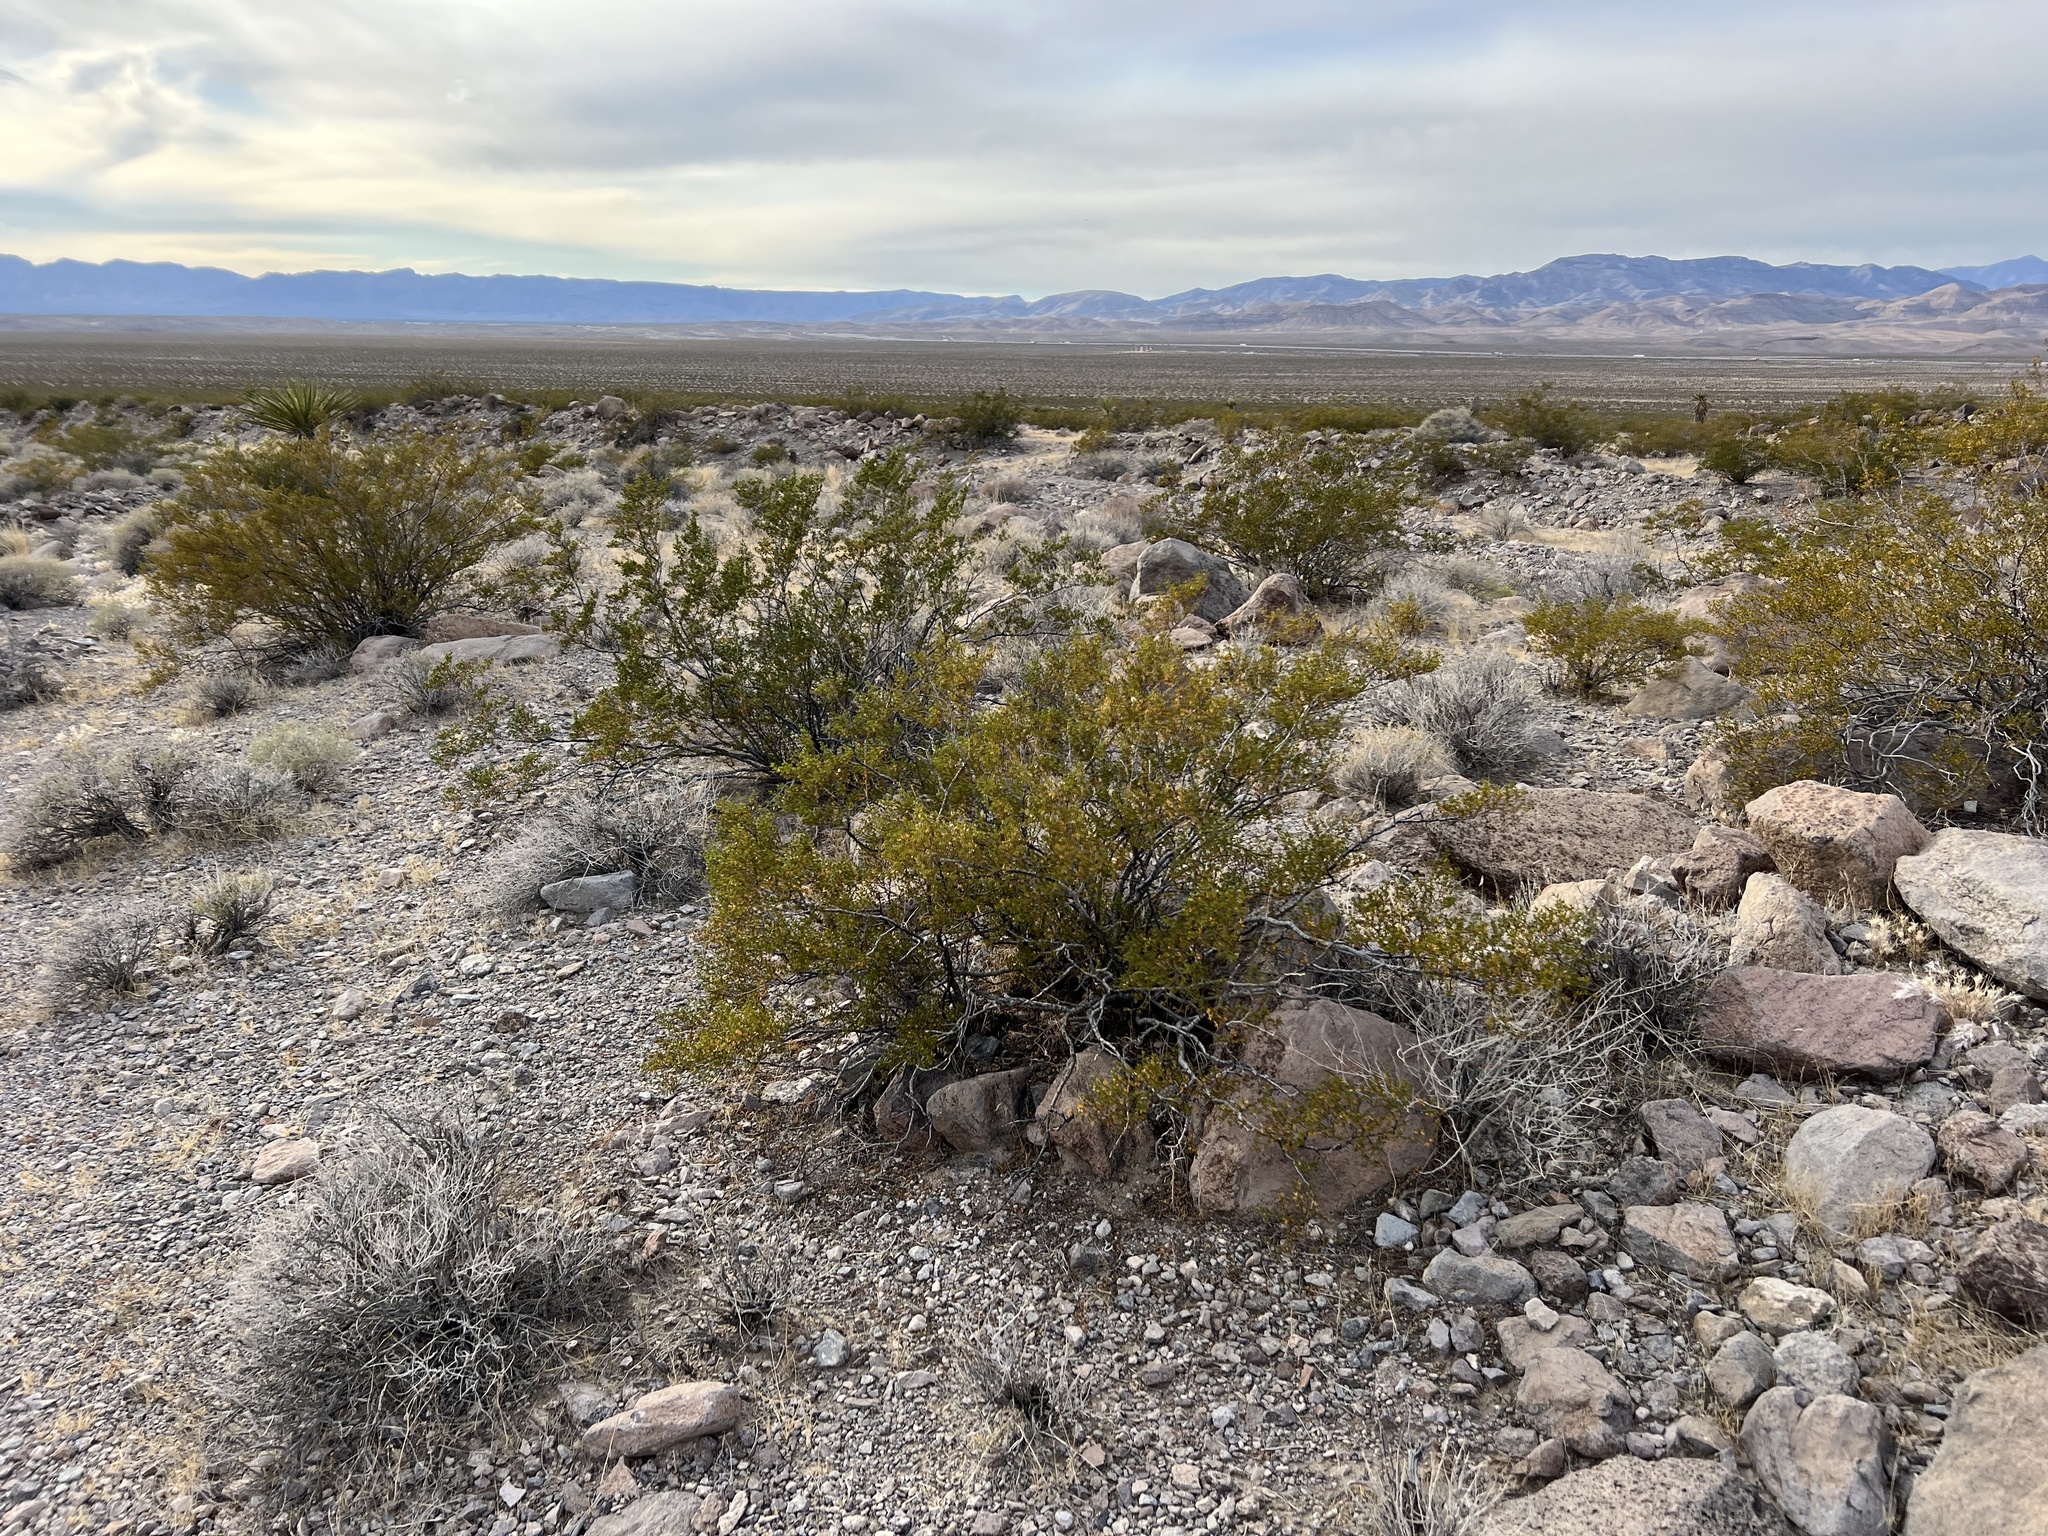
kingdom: Plantae
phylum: Tracheophyta
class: Magnoliopsida
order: Zygophyllales
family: Zygophyllaceae
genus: Larrea
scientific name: Larrea tridentata
